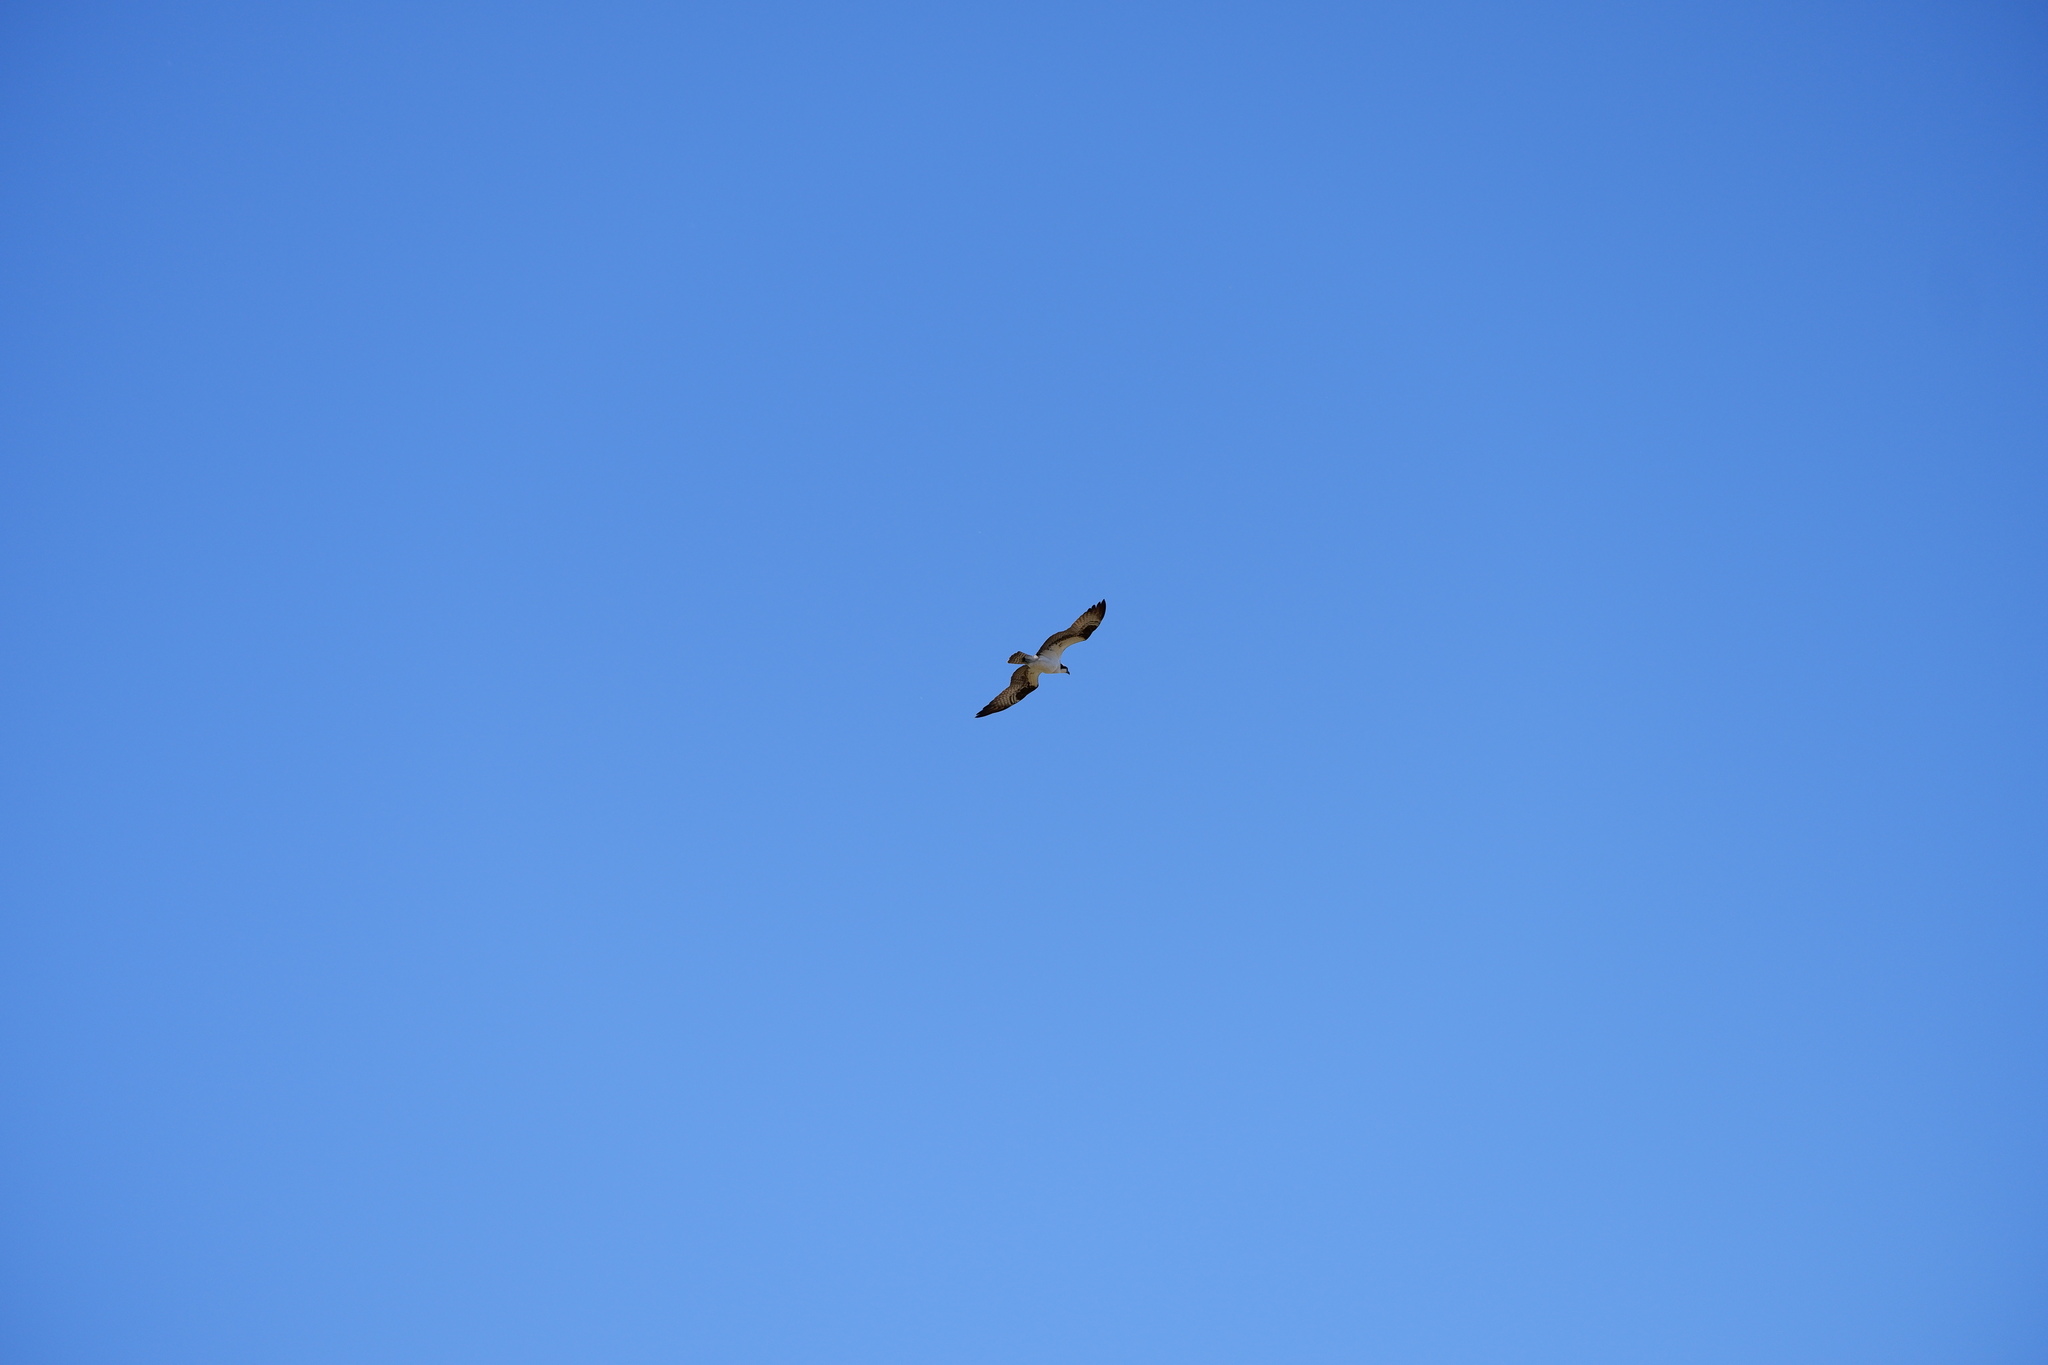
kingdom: Animalia
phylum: Chordata
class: Aves
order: Accipitriformes
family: Pandionidae
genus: Pandion
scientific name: Pandion haliaetus
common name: Osprey
